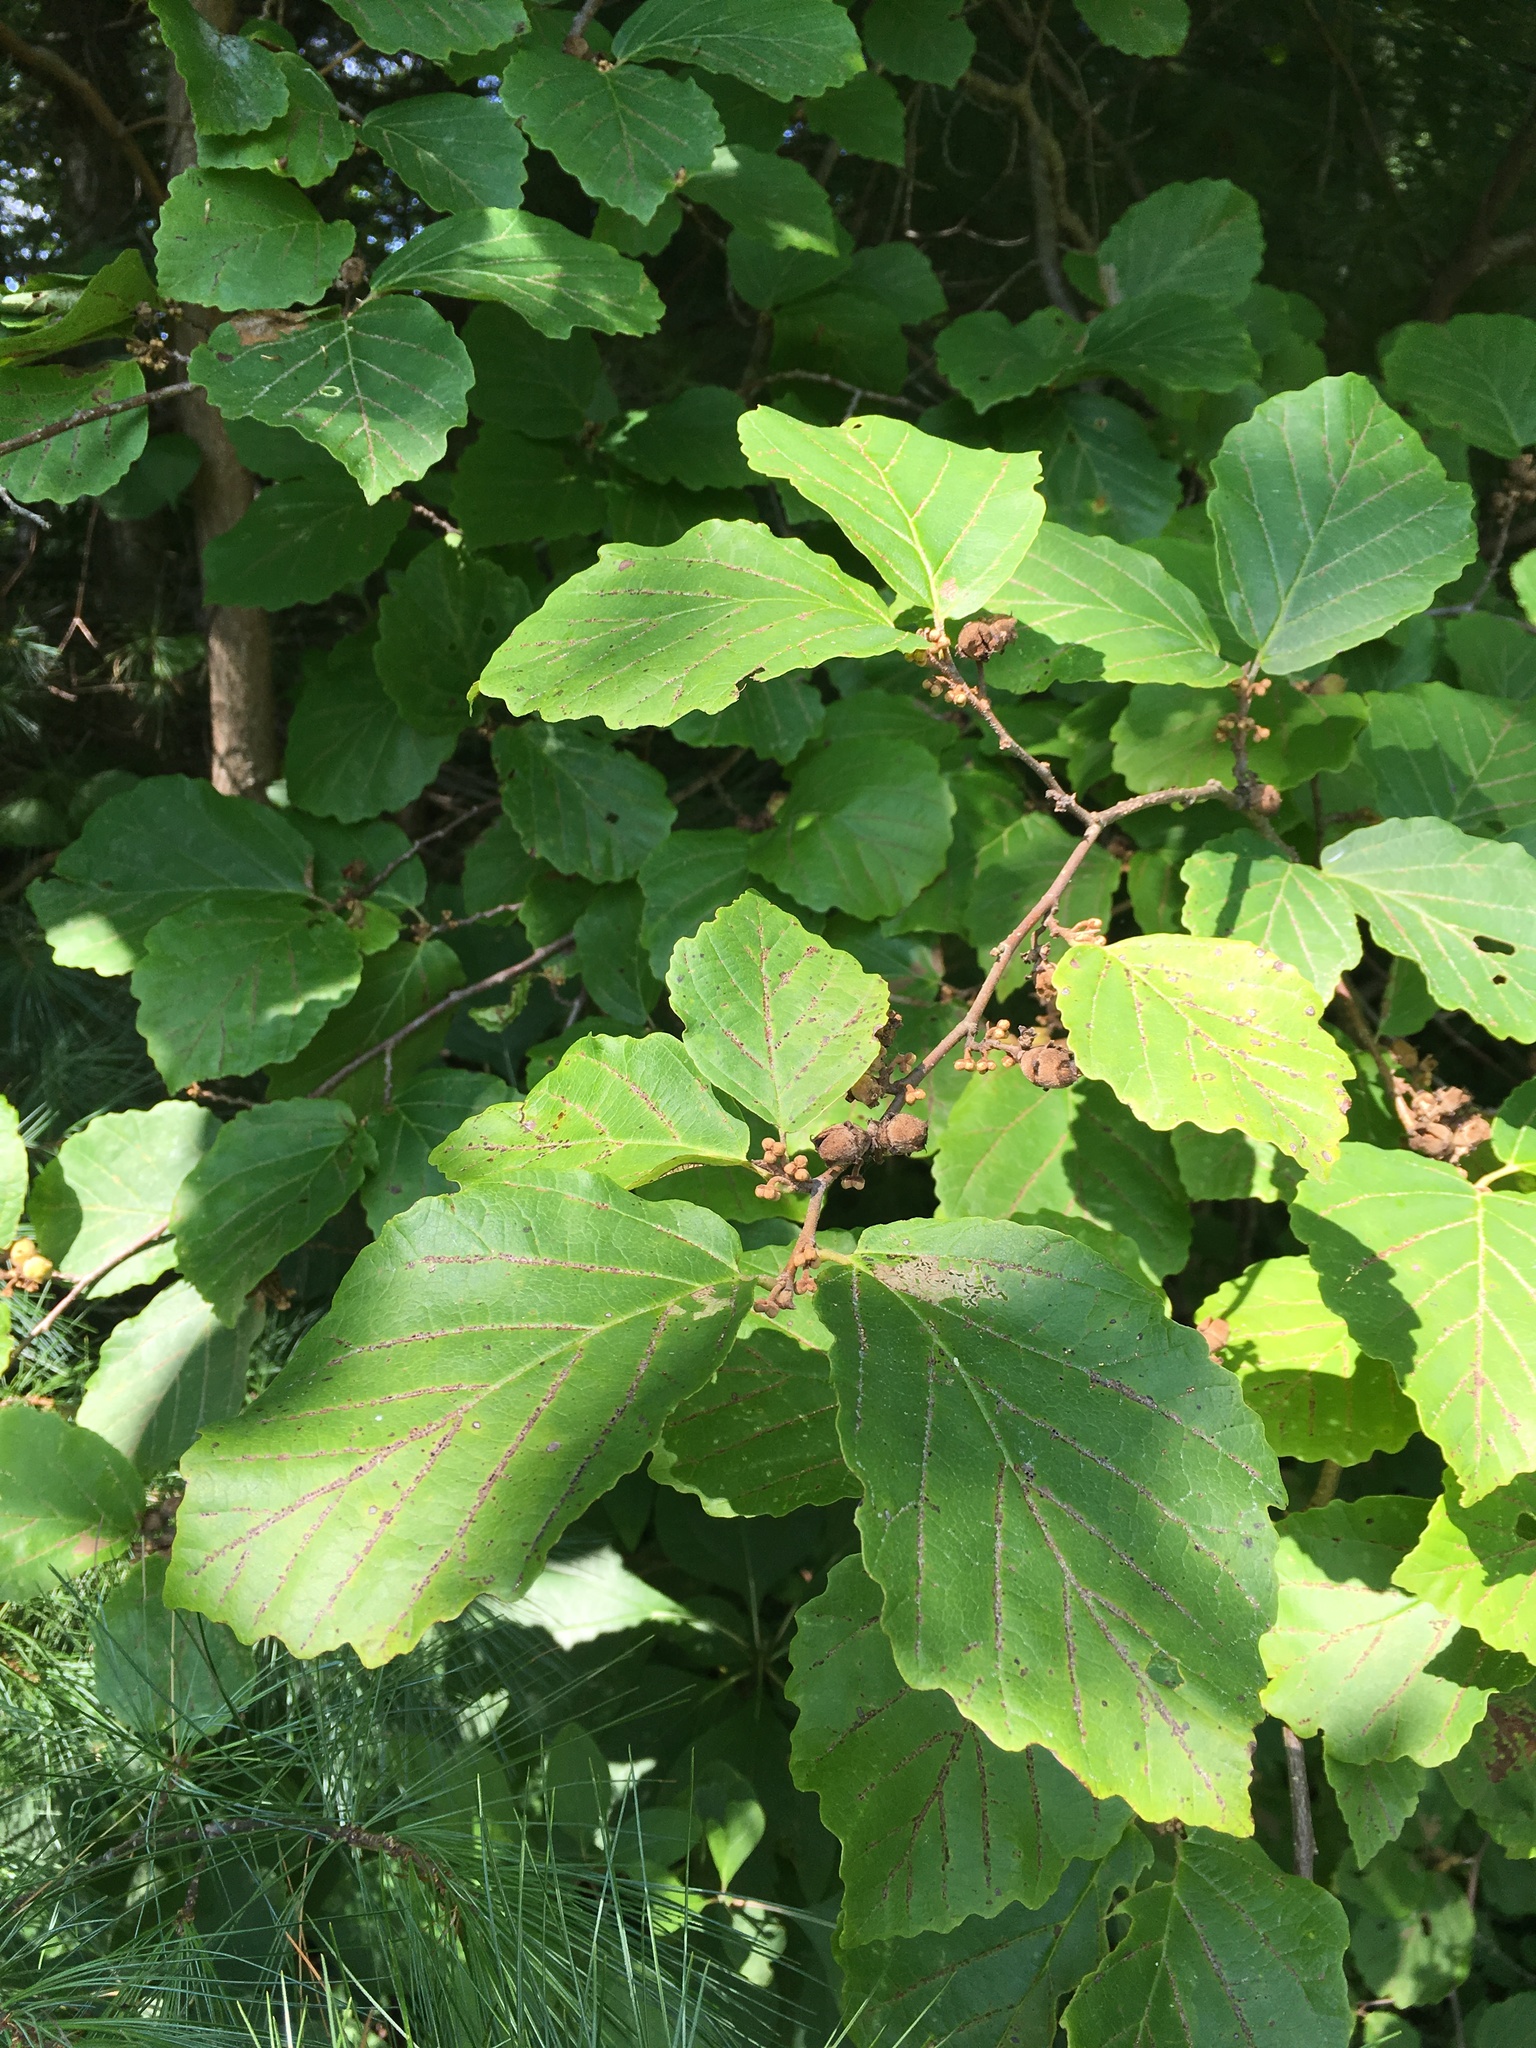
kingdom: Plantae
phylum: Tracheophyta
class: Magnoliopsida
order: Saxifragales
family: Hamamelidaceae
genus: Hamamelis
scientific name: Hamamelis virginiana
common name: Witch-hazel
